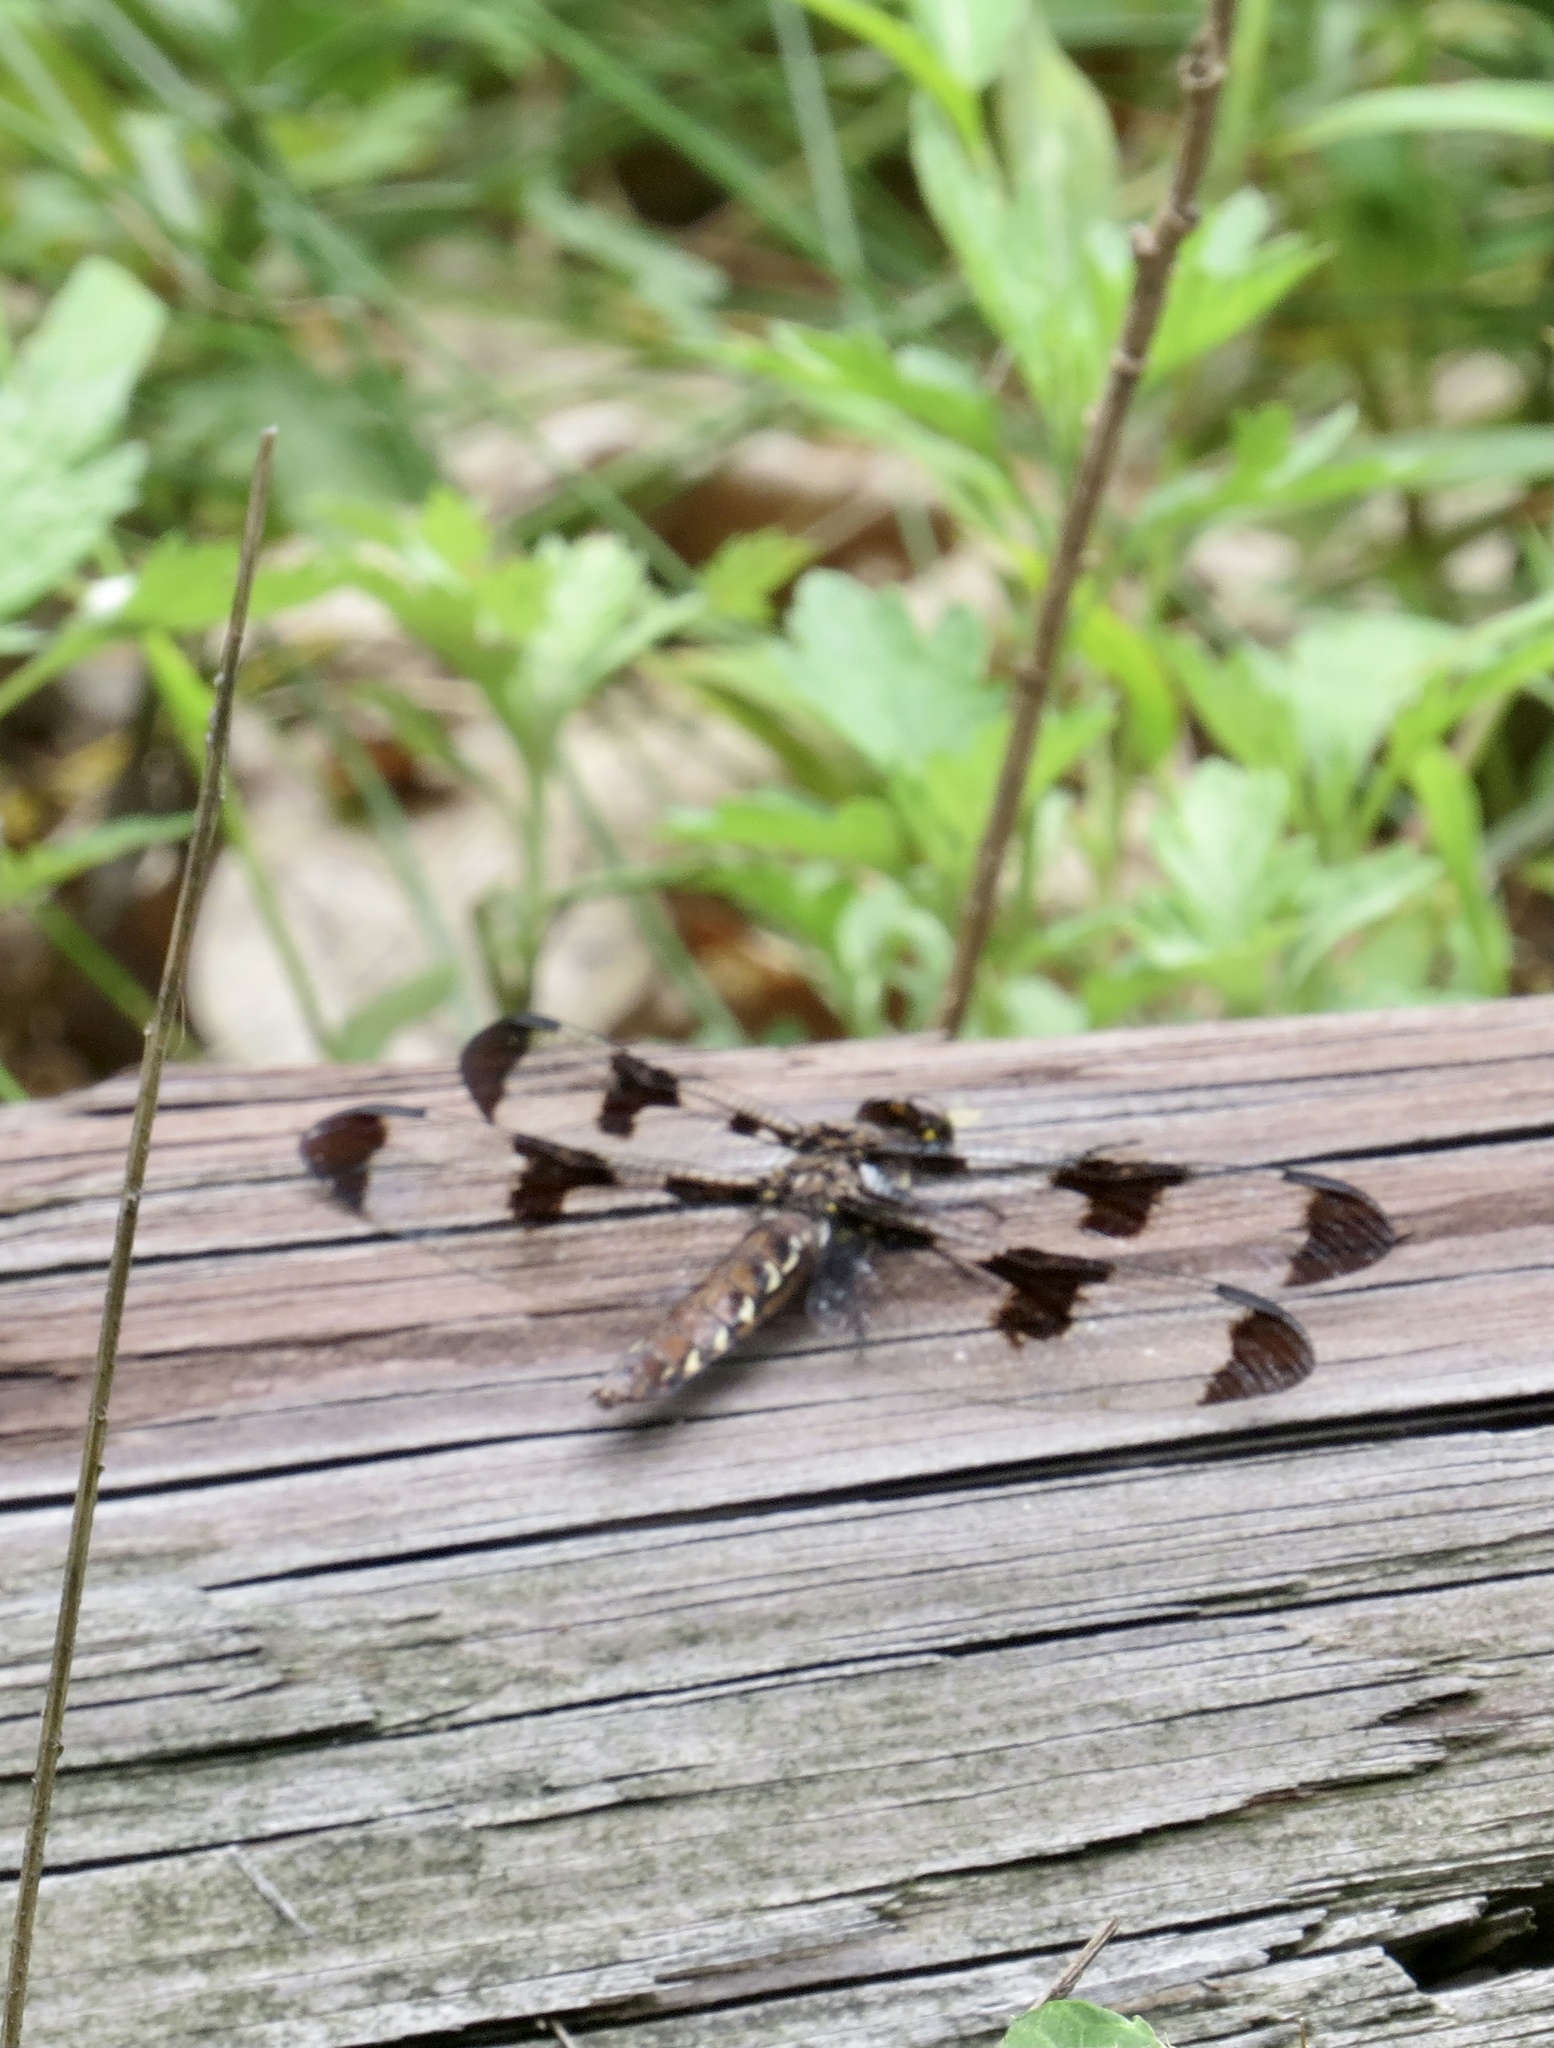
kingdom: Animalia
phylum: Arthropoda
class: Insecta
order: Odonata
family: Libellulidae
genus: Plathemis
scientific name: Plathemis lydia
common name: Common whitetail
